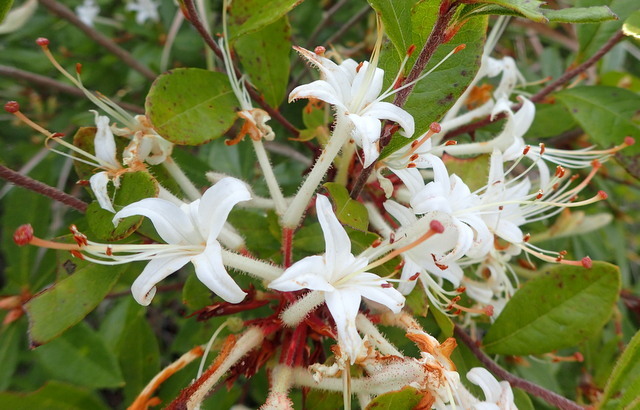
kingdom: Plantae
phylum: Tracheophyta
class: Magnoliopsida
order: Ericales
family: Ericaceae
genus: Rhododendron
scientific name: Rhododendron serrulatum
